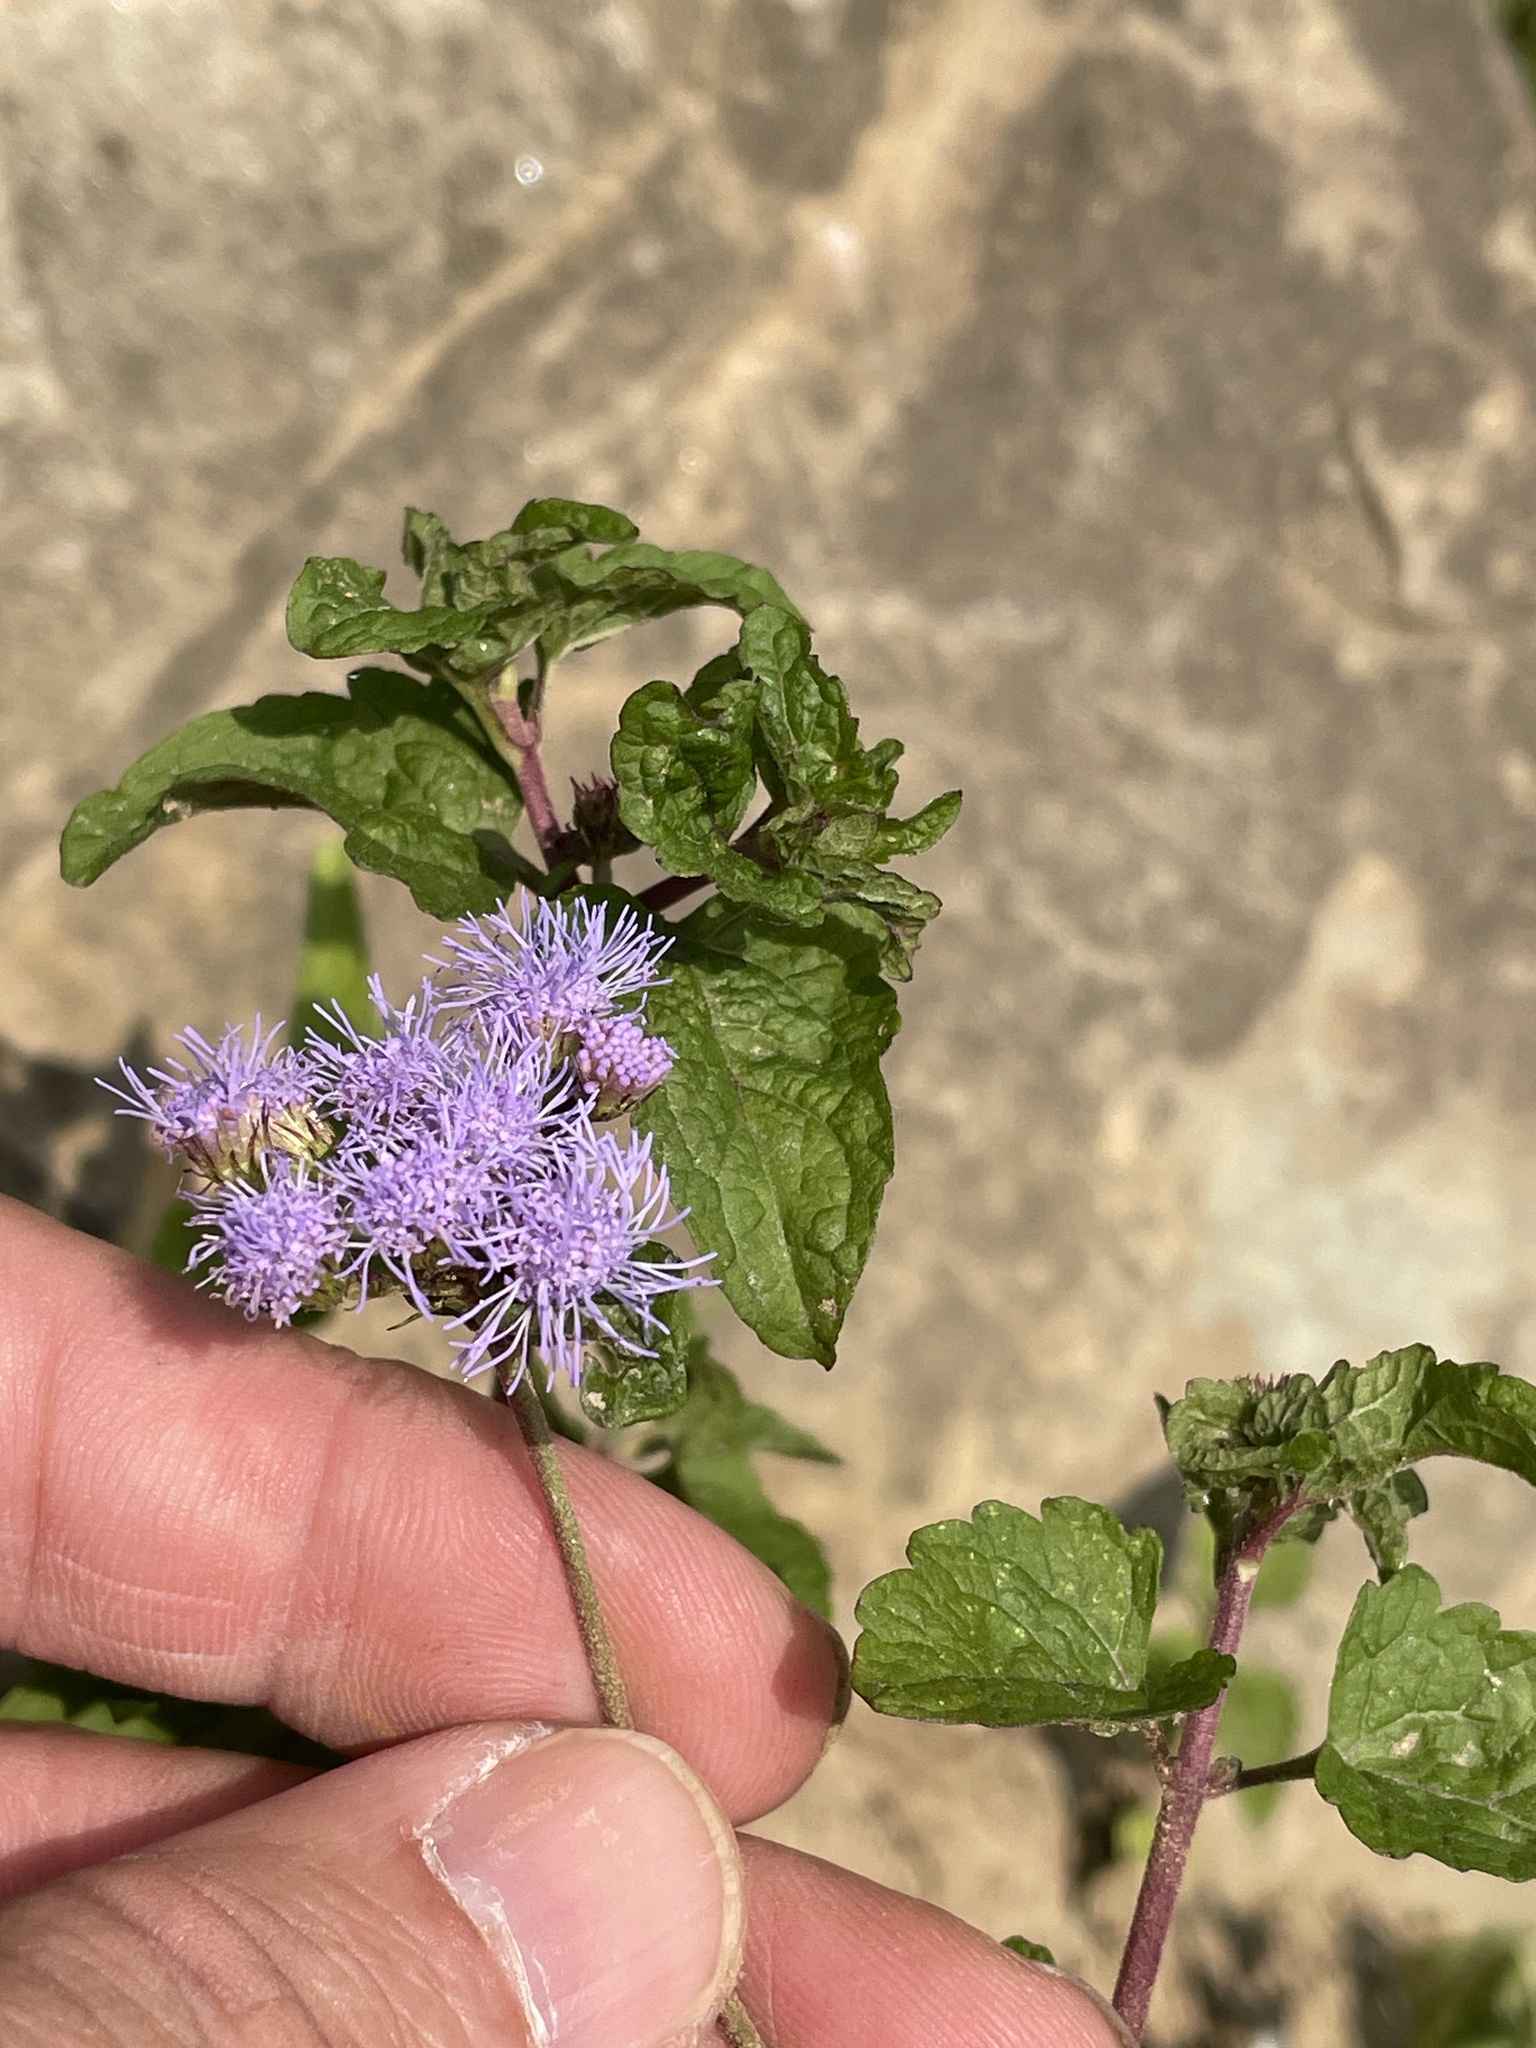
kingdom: Plantae
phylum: Tracheophyta
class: Magnoliopsida
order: Asterales
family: Asteraceae
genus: Conoclinium
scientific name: Conoclinium coelestinum
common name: Blue mistflower
